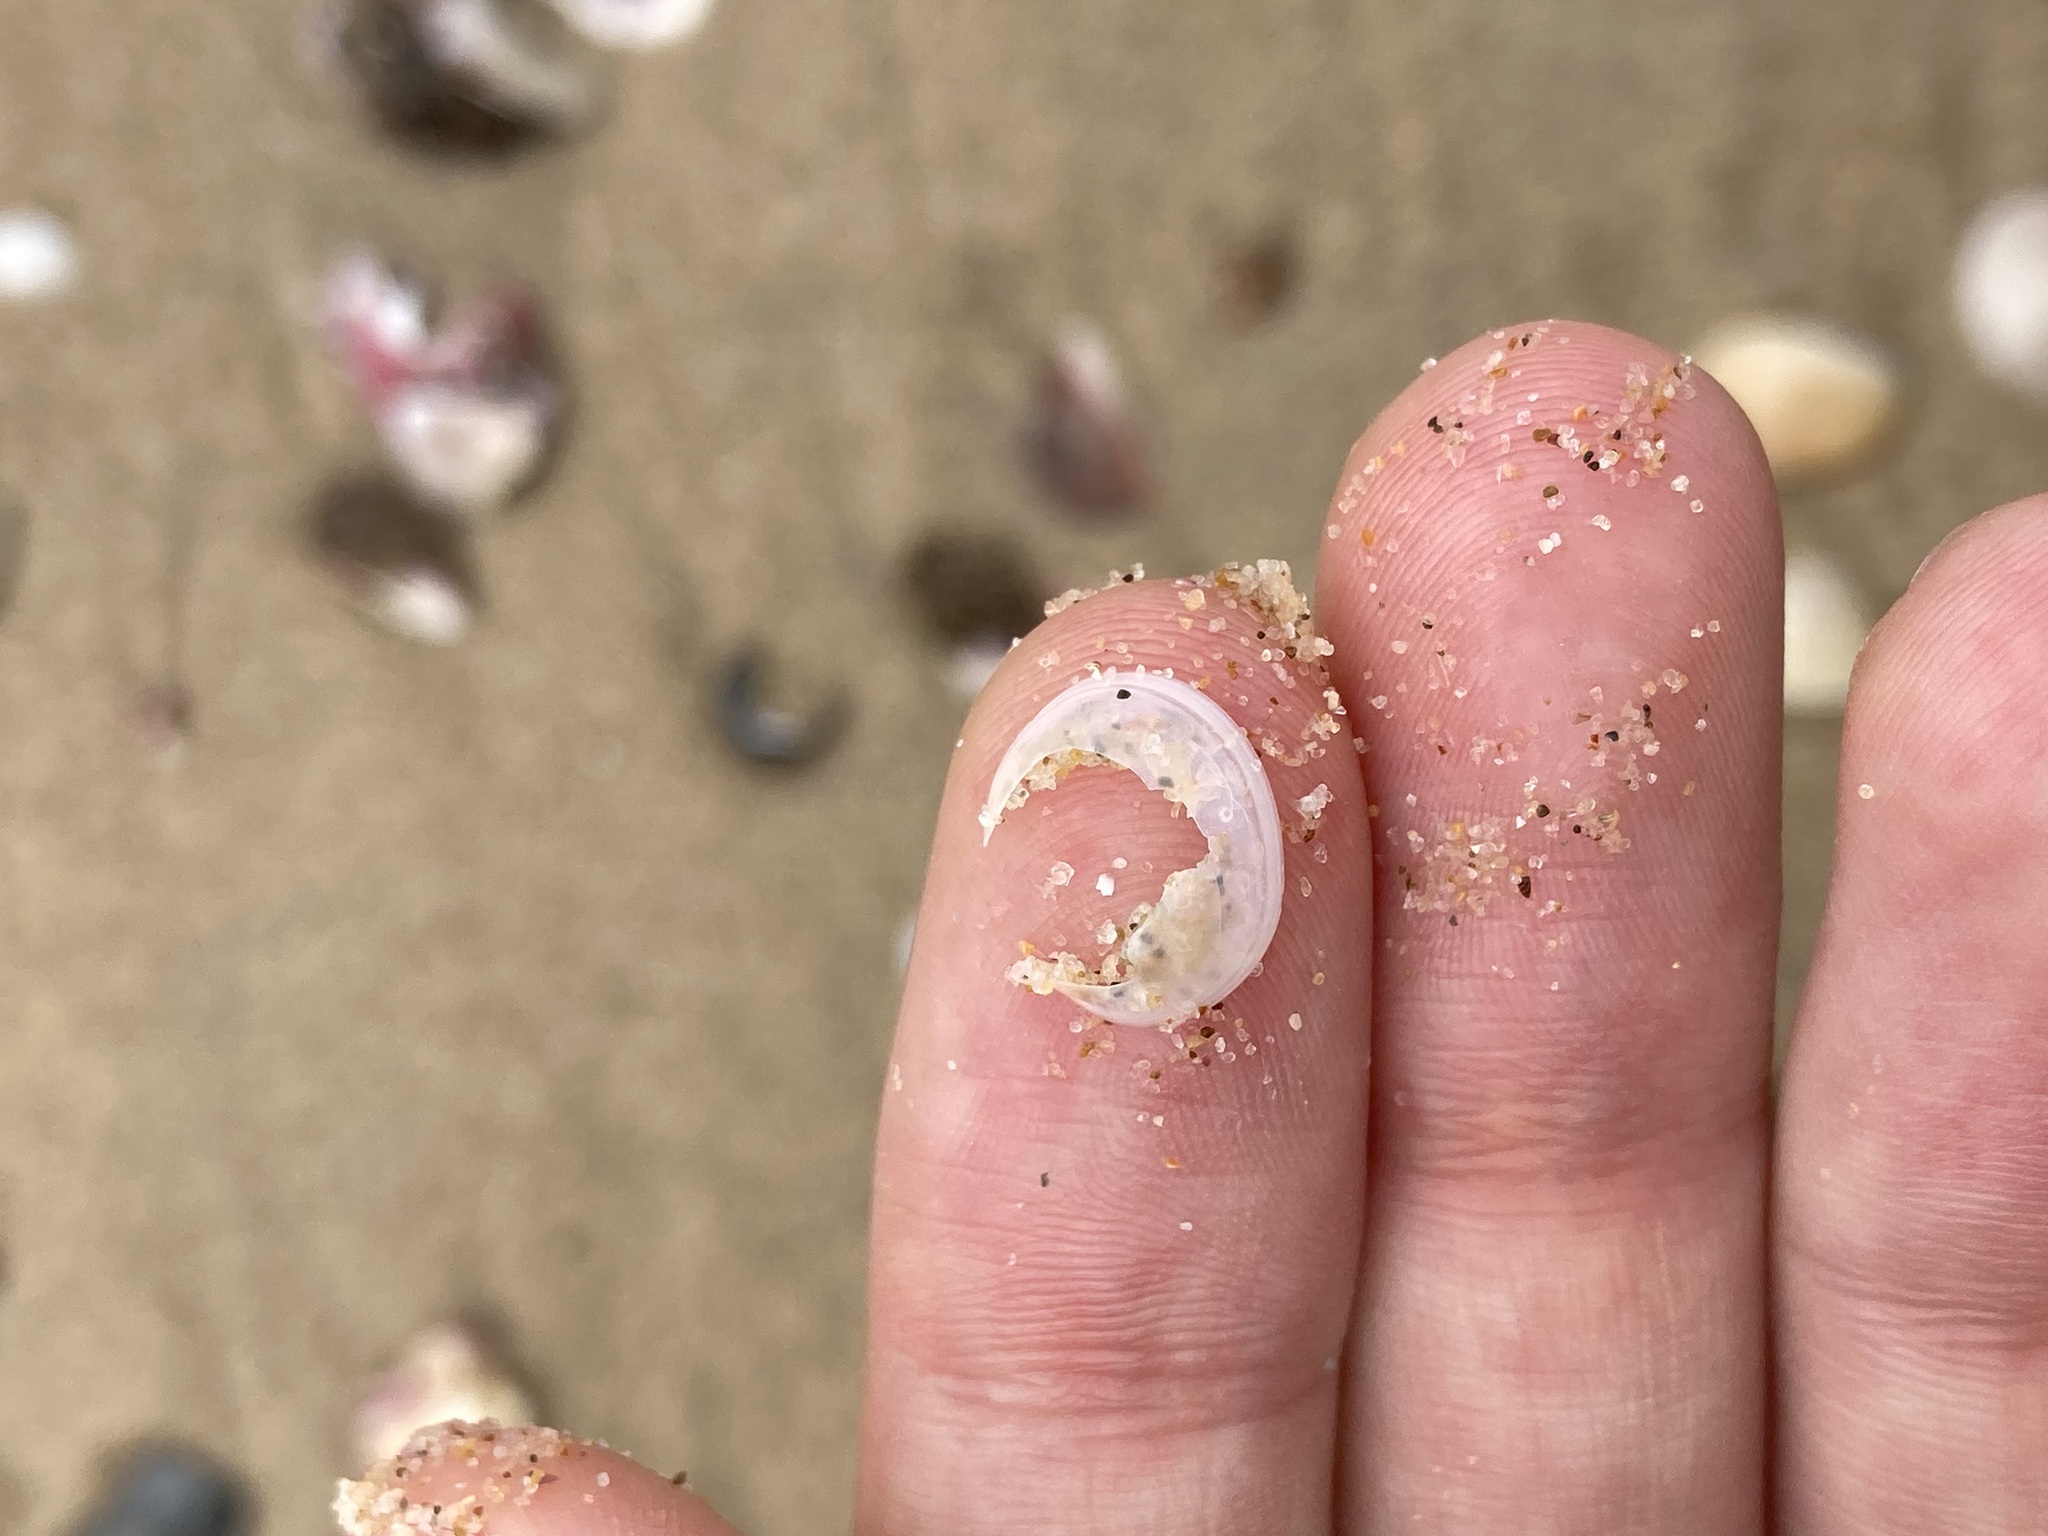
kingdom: Animalia
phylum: Mollusca
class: Bivalvia
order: Galeommatida
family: Galeommatidae
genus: Scintillula
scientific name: Scintillula solida
